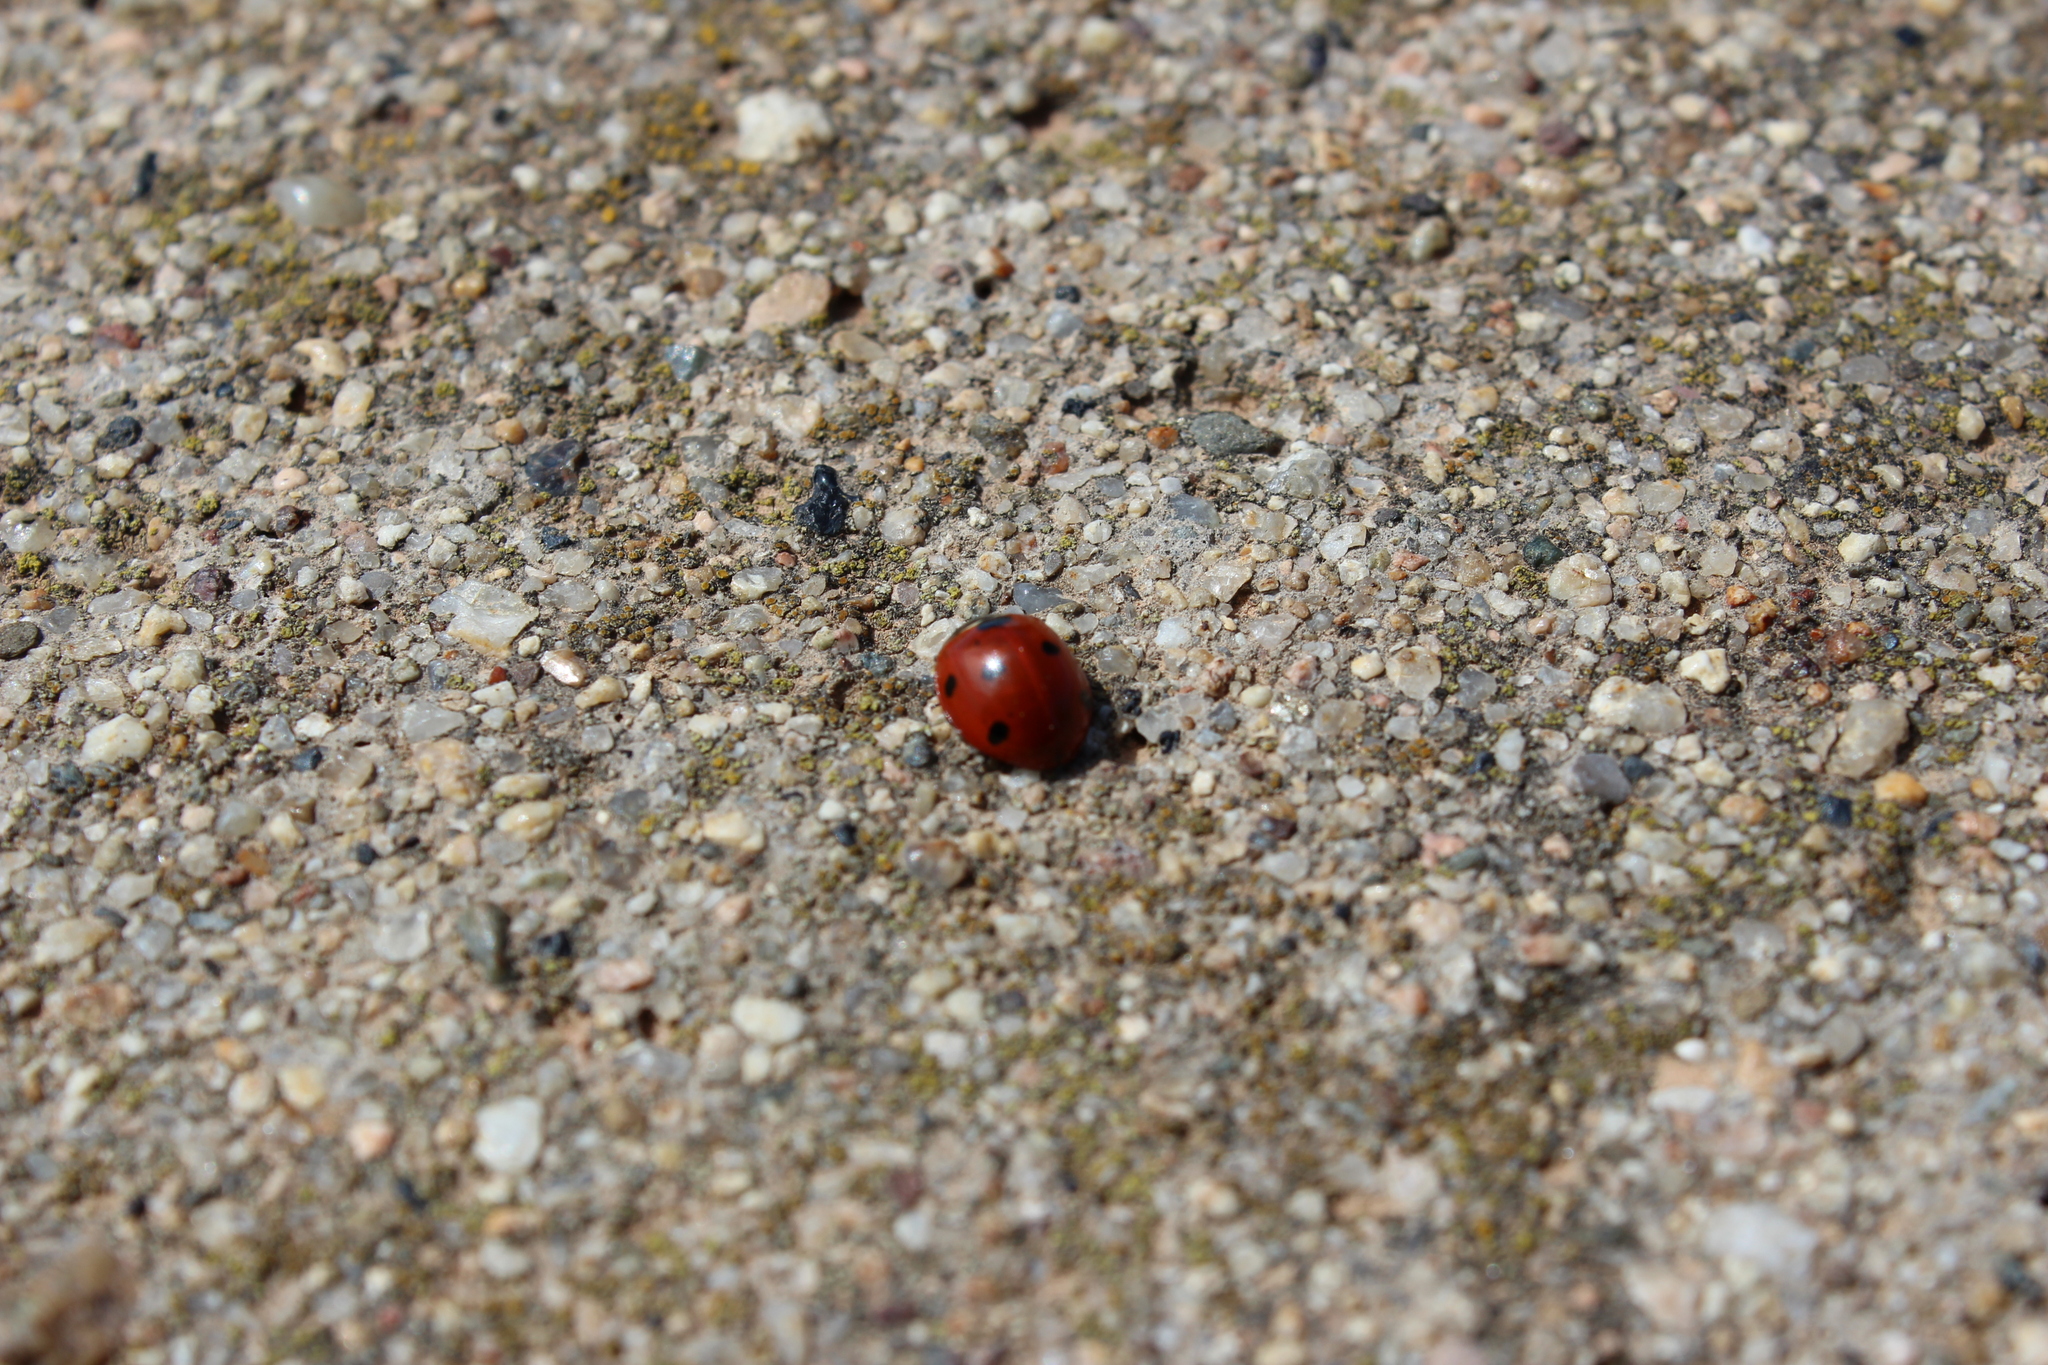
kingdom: Animalia
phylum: Arthropoda
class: Insecta
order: Coleoptera
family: Coccinellidae
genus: Coccinella
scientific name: Coccinella septempunctata
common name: Sevenspotted lady beetle
